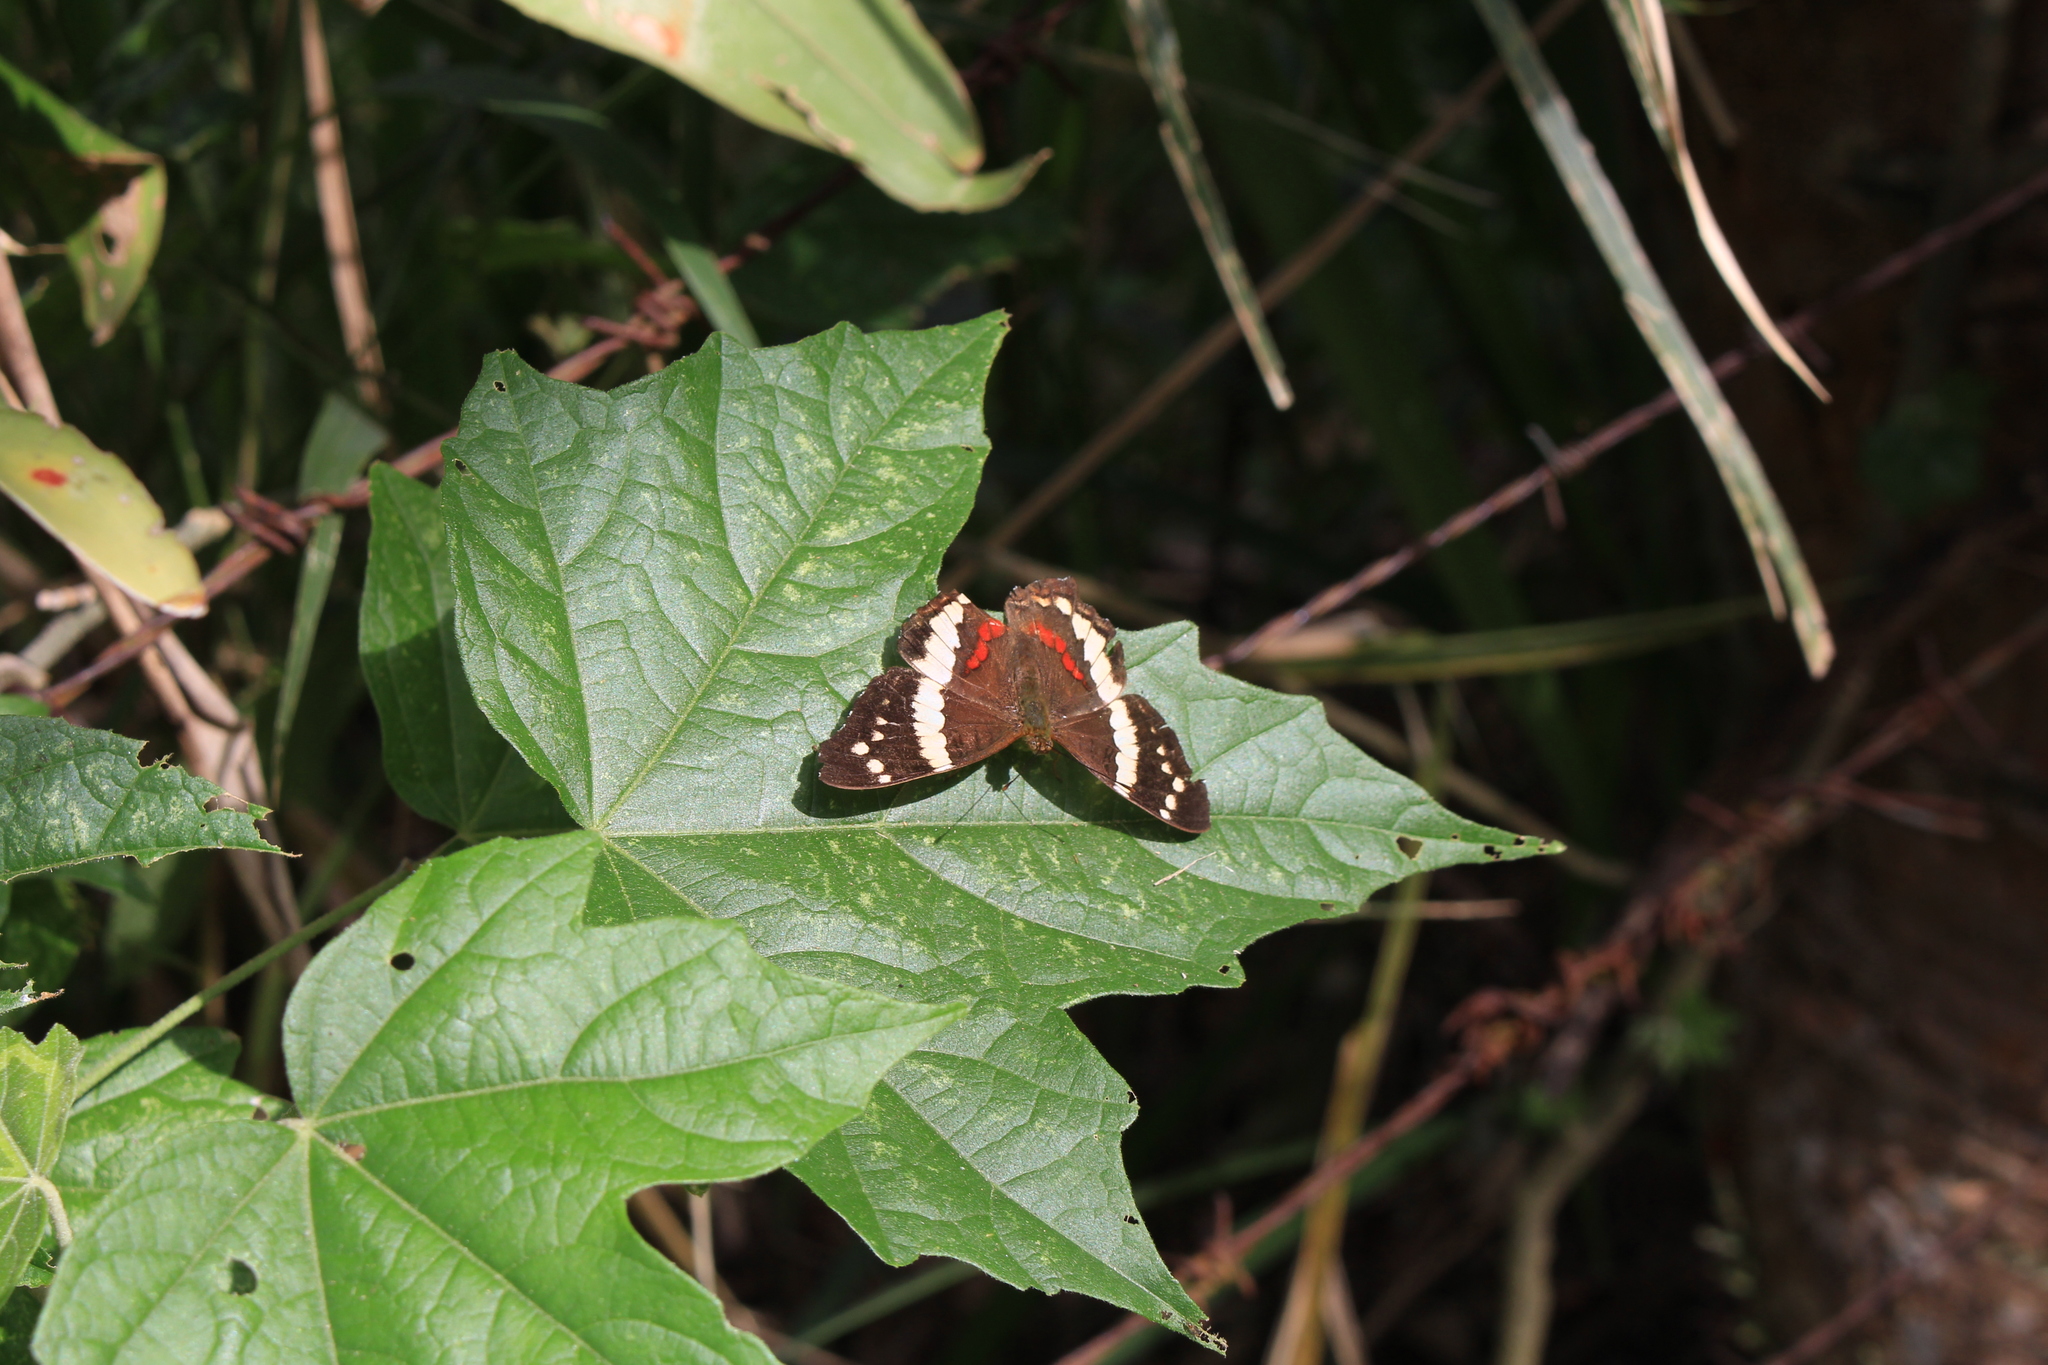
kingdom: Animalia
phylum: Arthropoda
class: Insecta
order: Lepidoptera
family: Nymphalidae
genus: Anartia
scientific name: Anartia fatima
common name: Banded peacock
